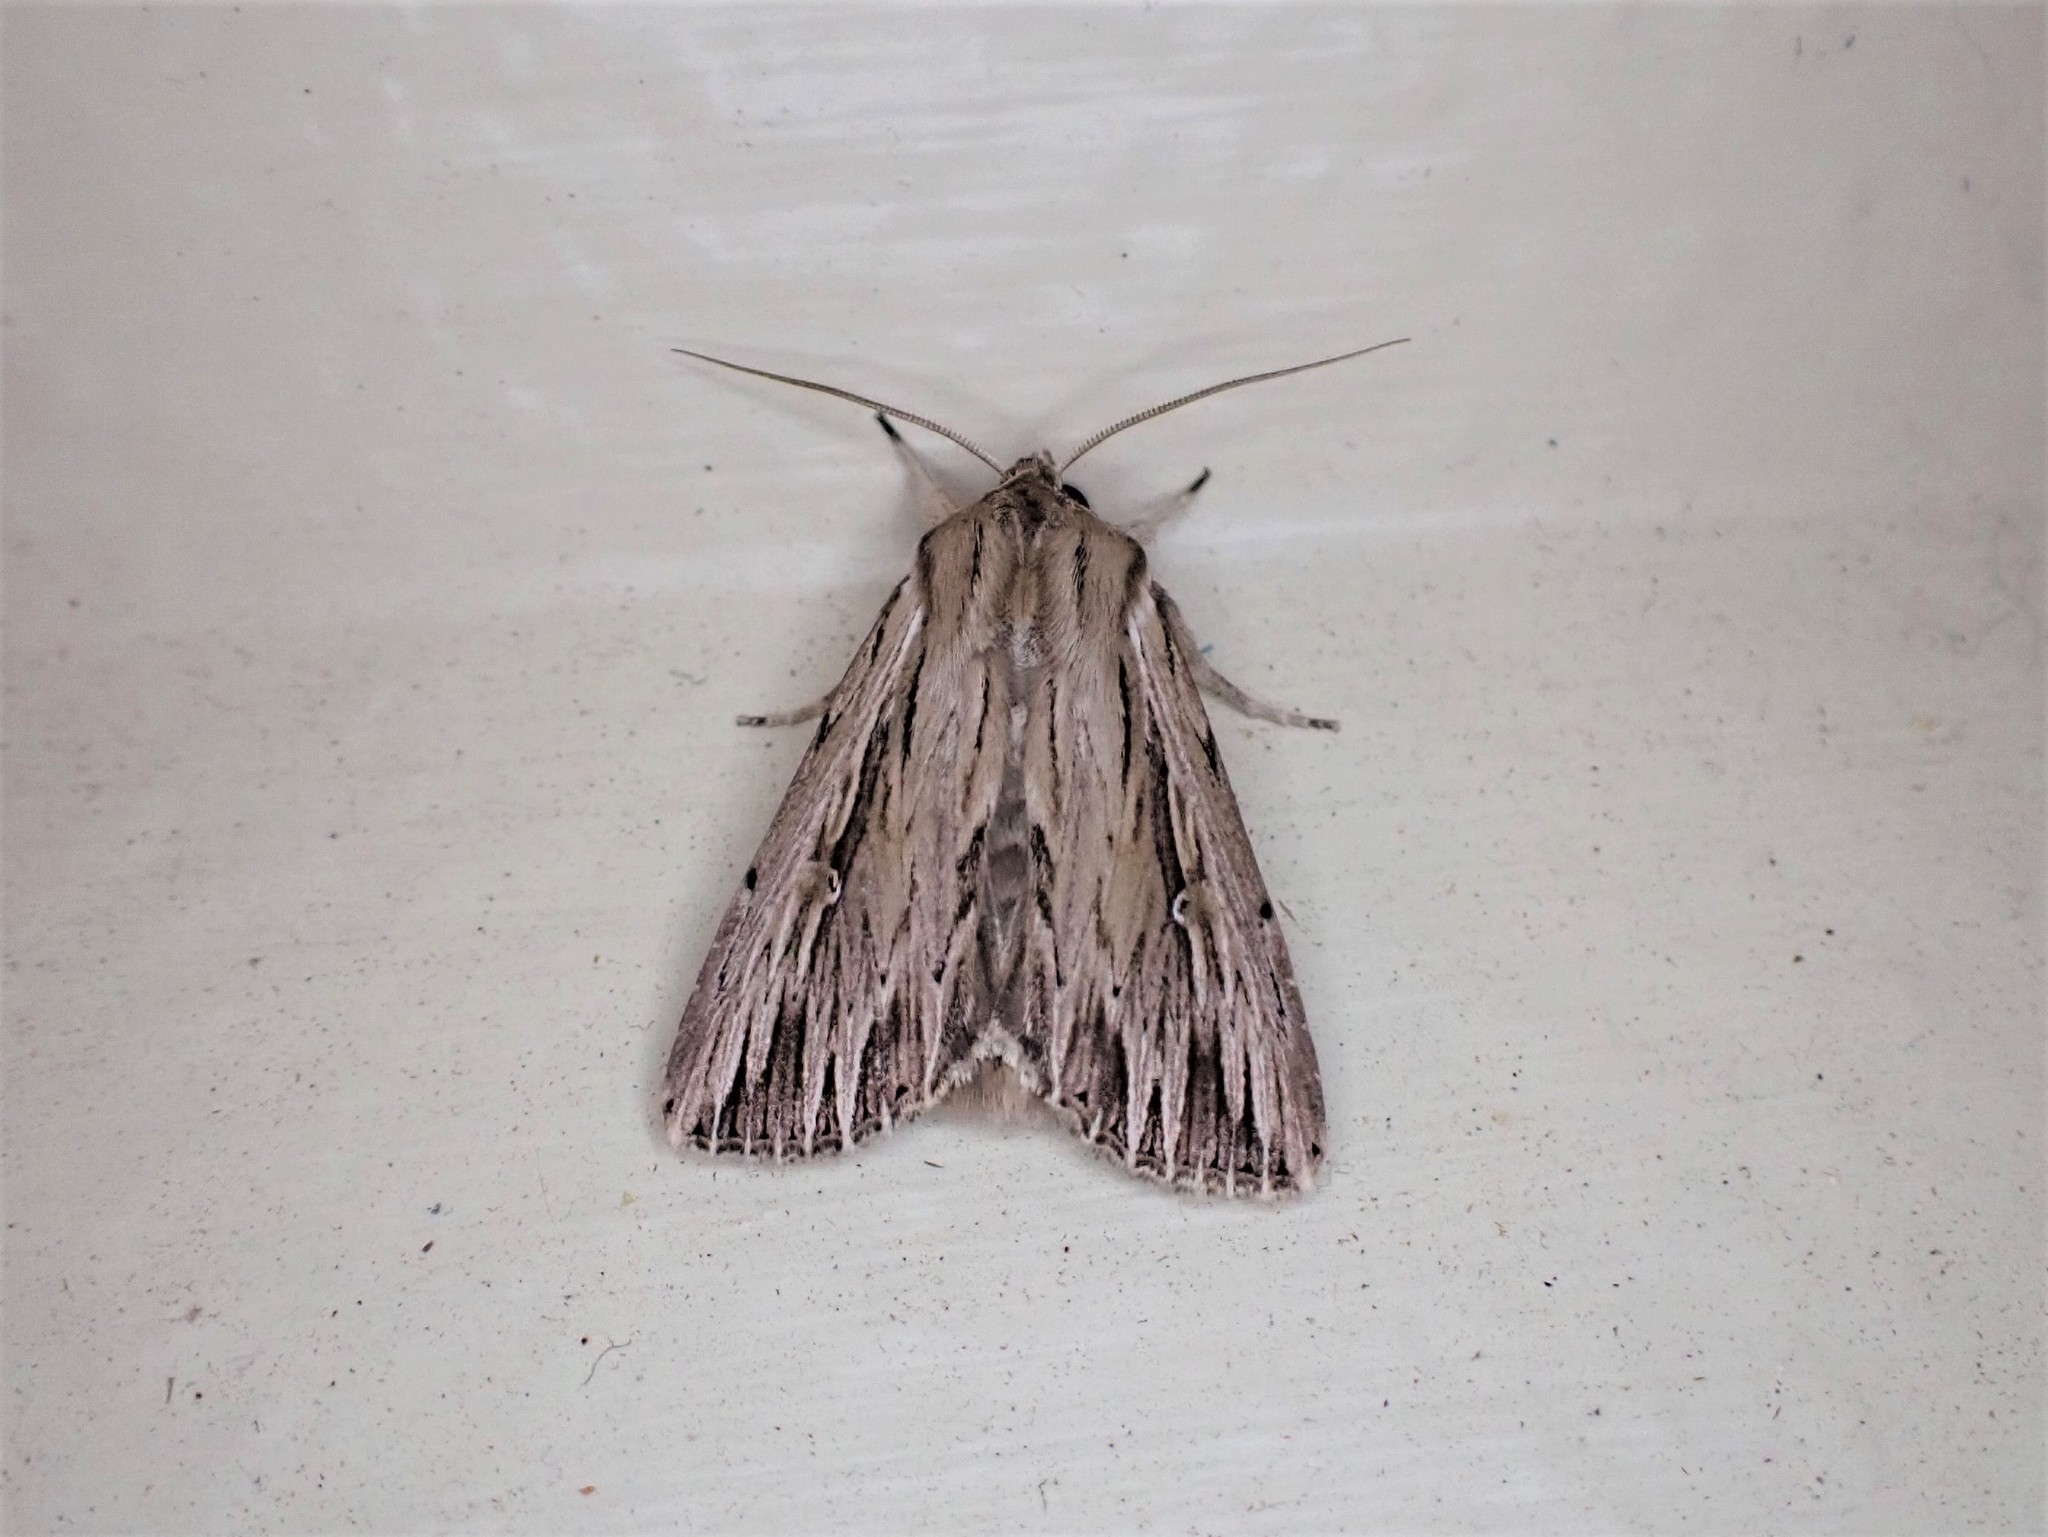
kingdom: Animalia
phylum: Arthropoda
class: Insecta
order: Lepidoptera
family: Noctuidae
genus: Persectania
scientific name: Persectania aversa
